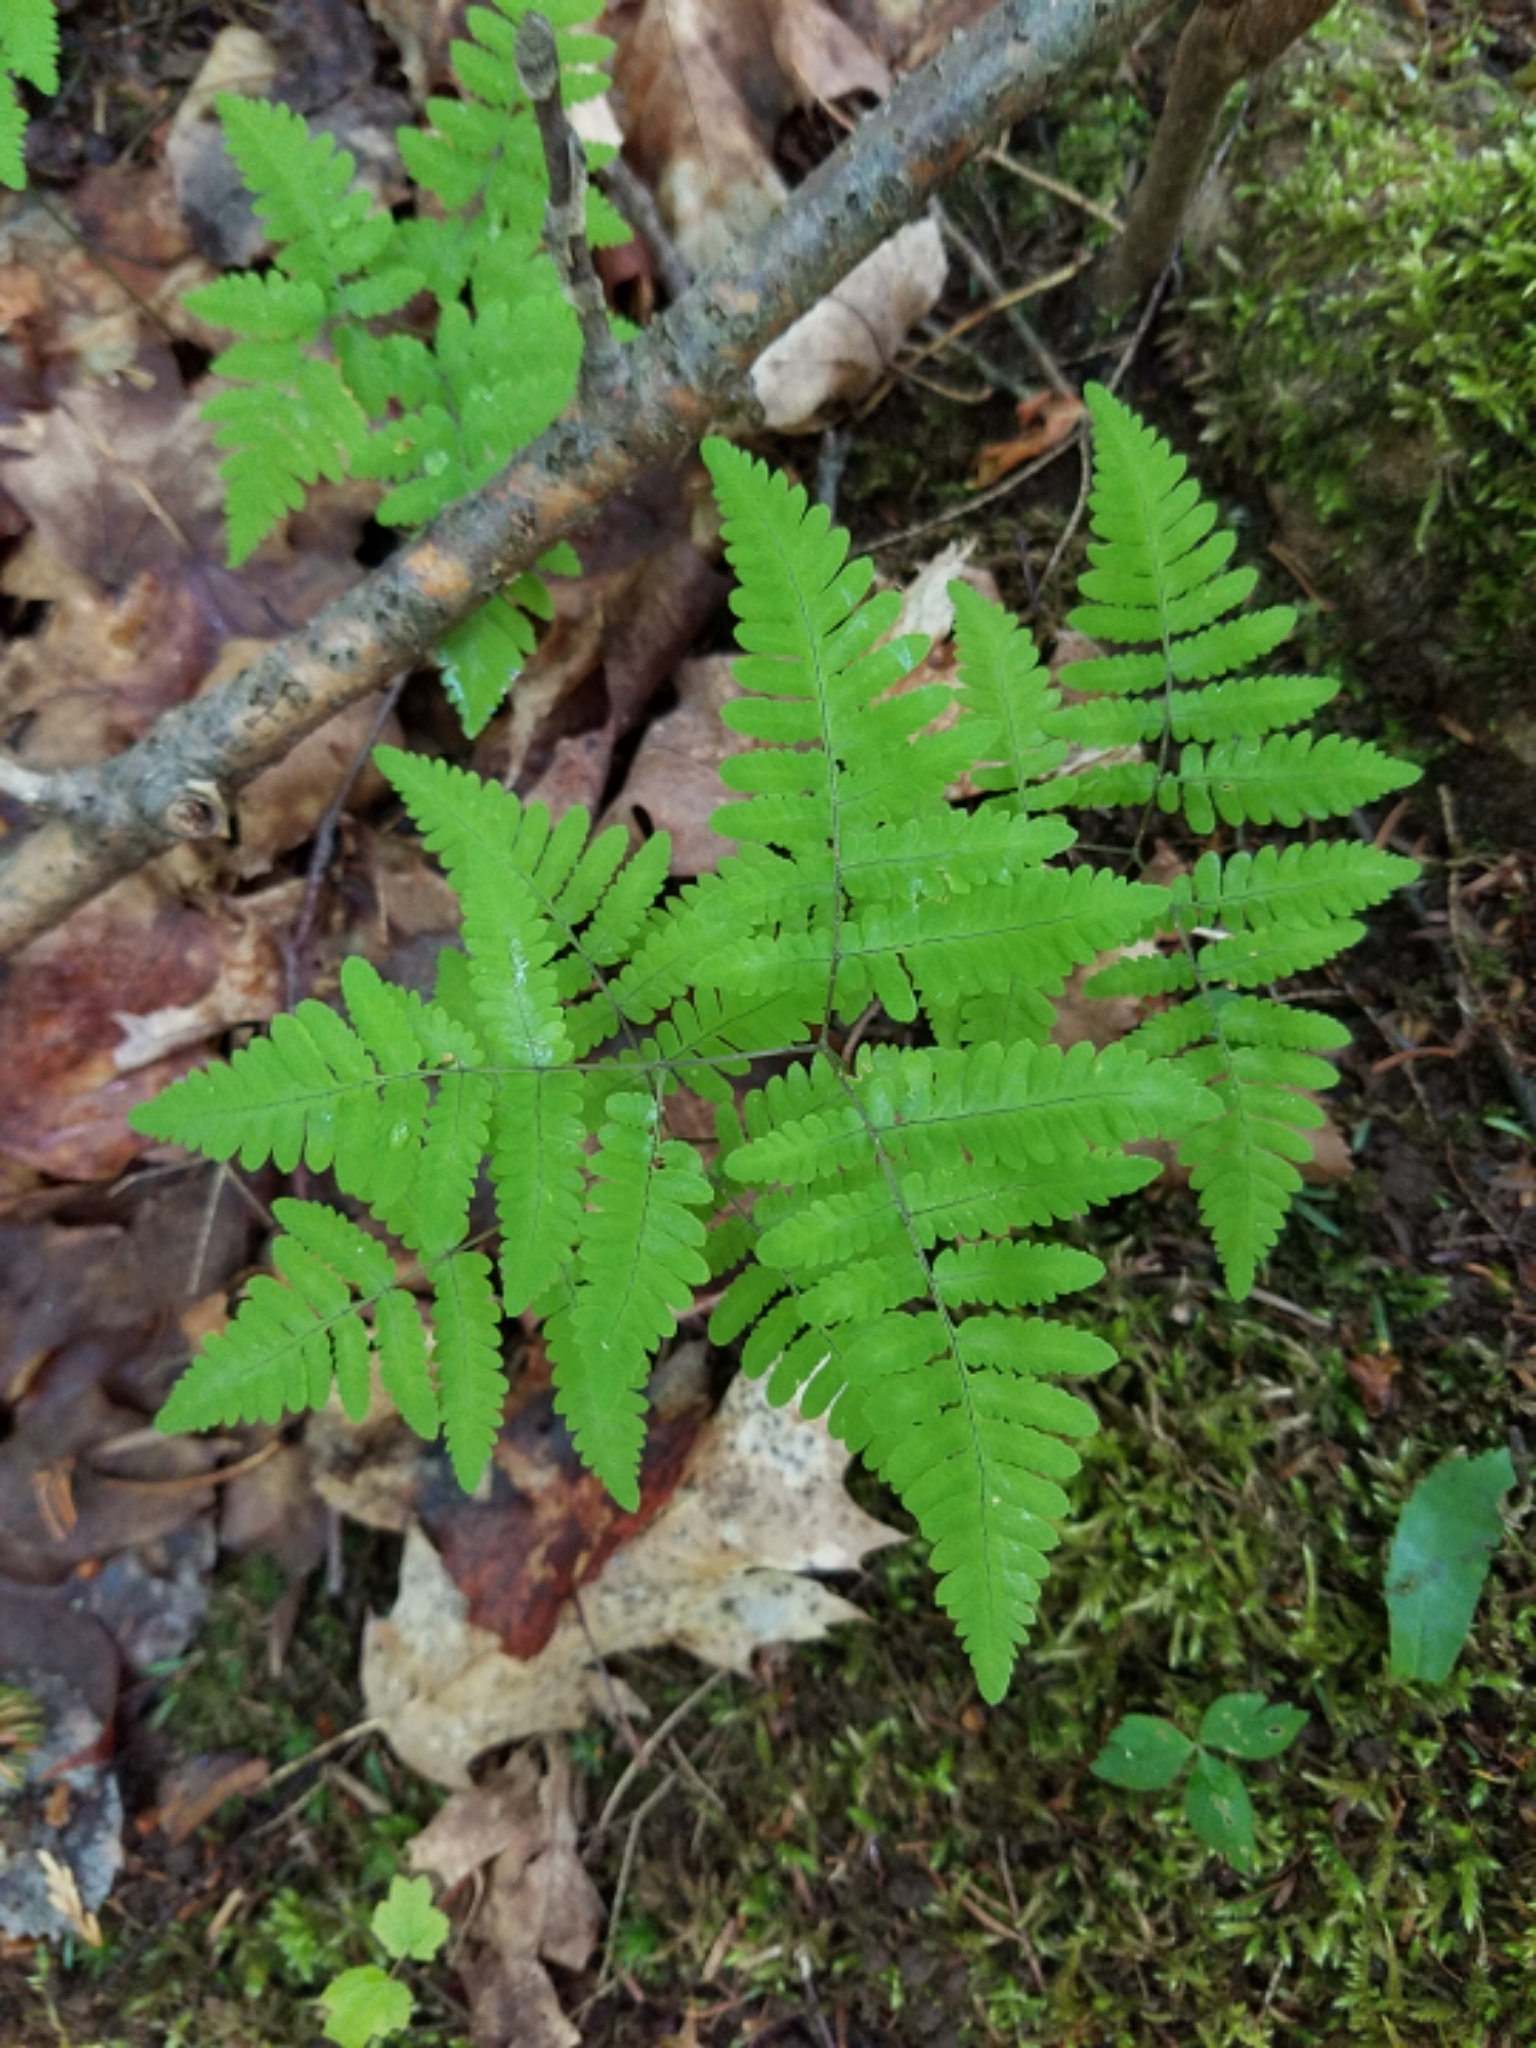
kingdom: Plantae
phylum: Tracheophyta
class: Polypodiopsida
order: Polypodiales
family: Cystopteridaceae
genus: Gymnocarpium
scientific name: Gymnocarpium dryopteris
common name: Oak fern
